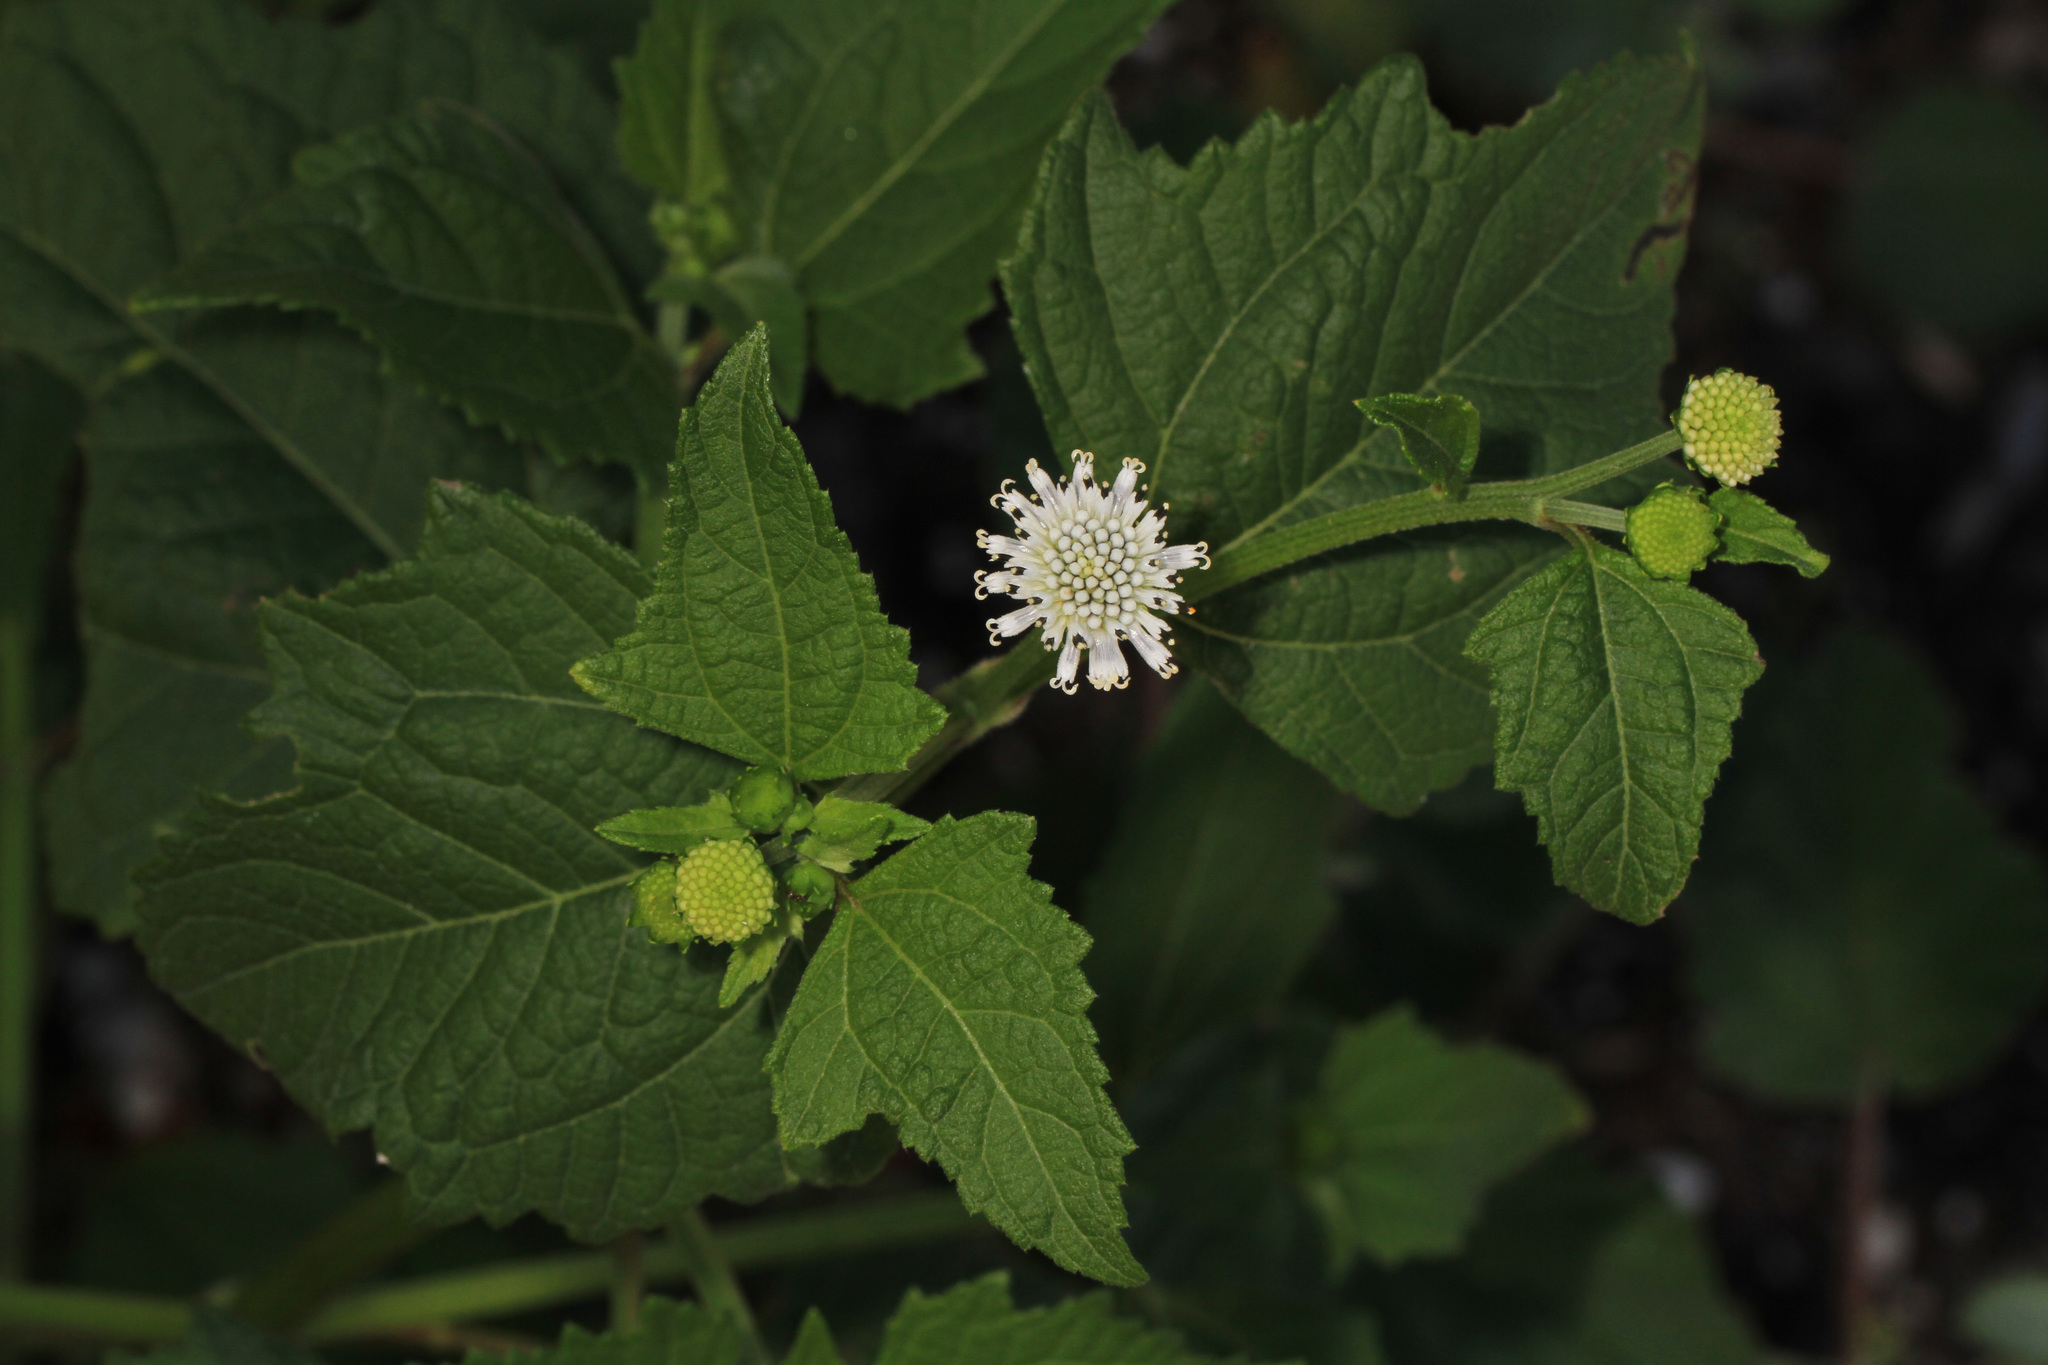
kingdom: Plantae
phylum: Tracheophyta
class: Magnoliopsida
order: Asterales
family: Asteraceae
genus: Melanthera
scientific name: Melanthera nivea
